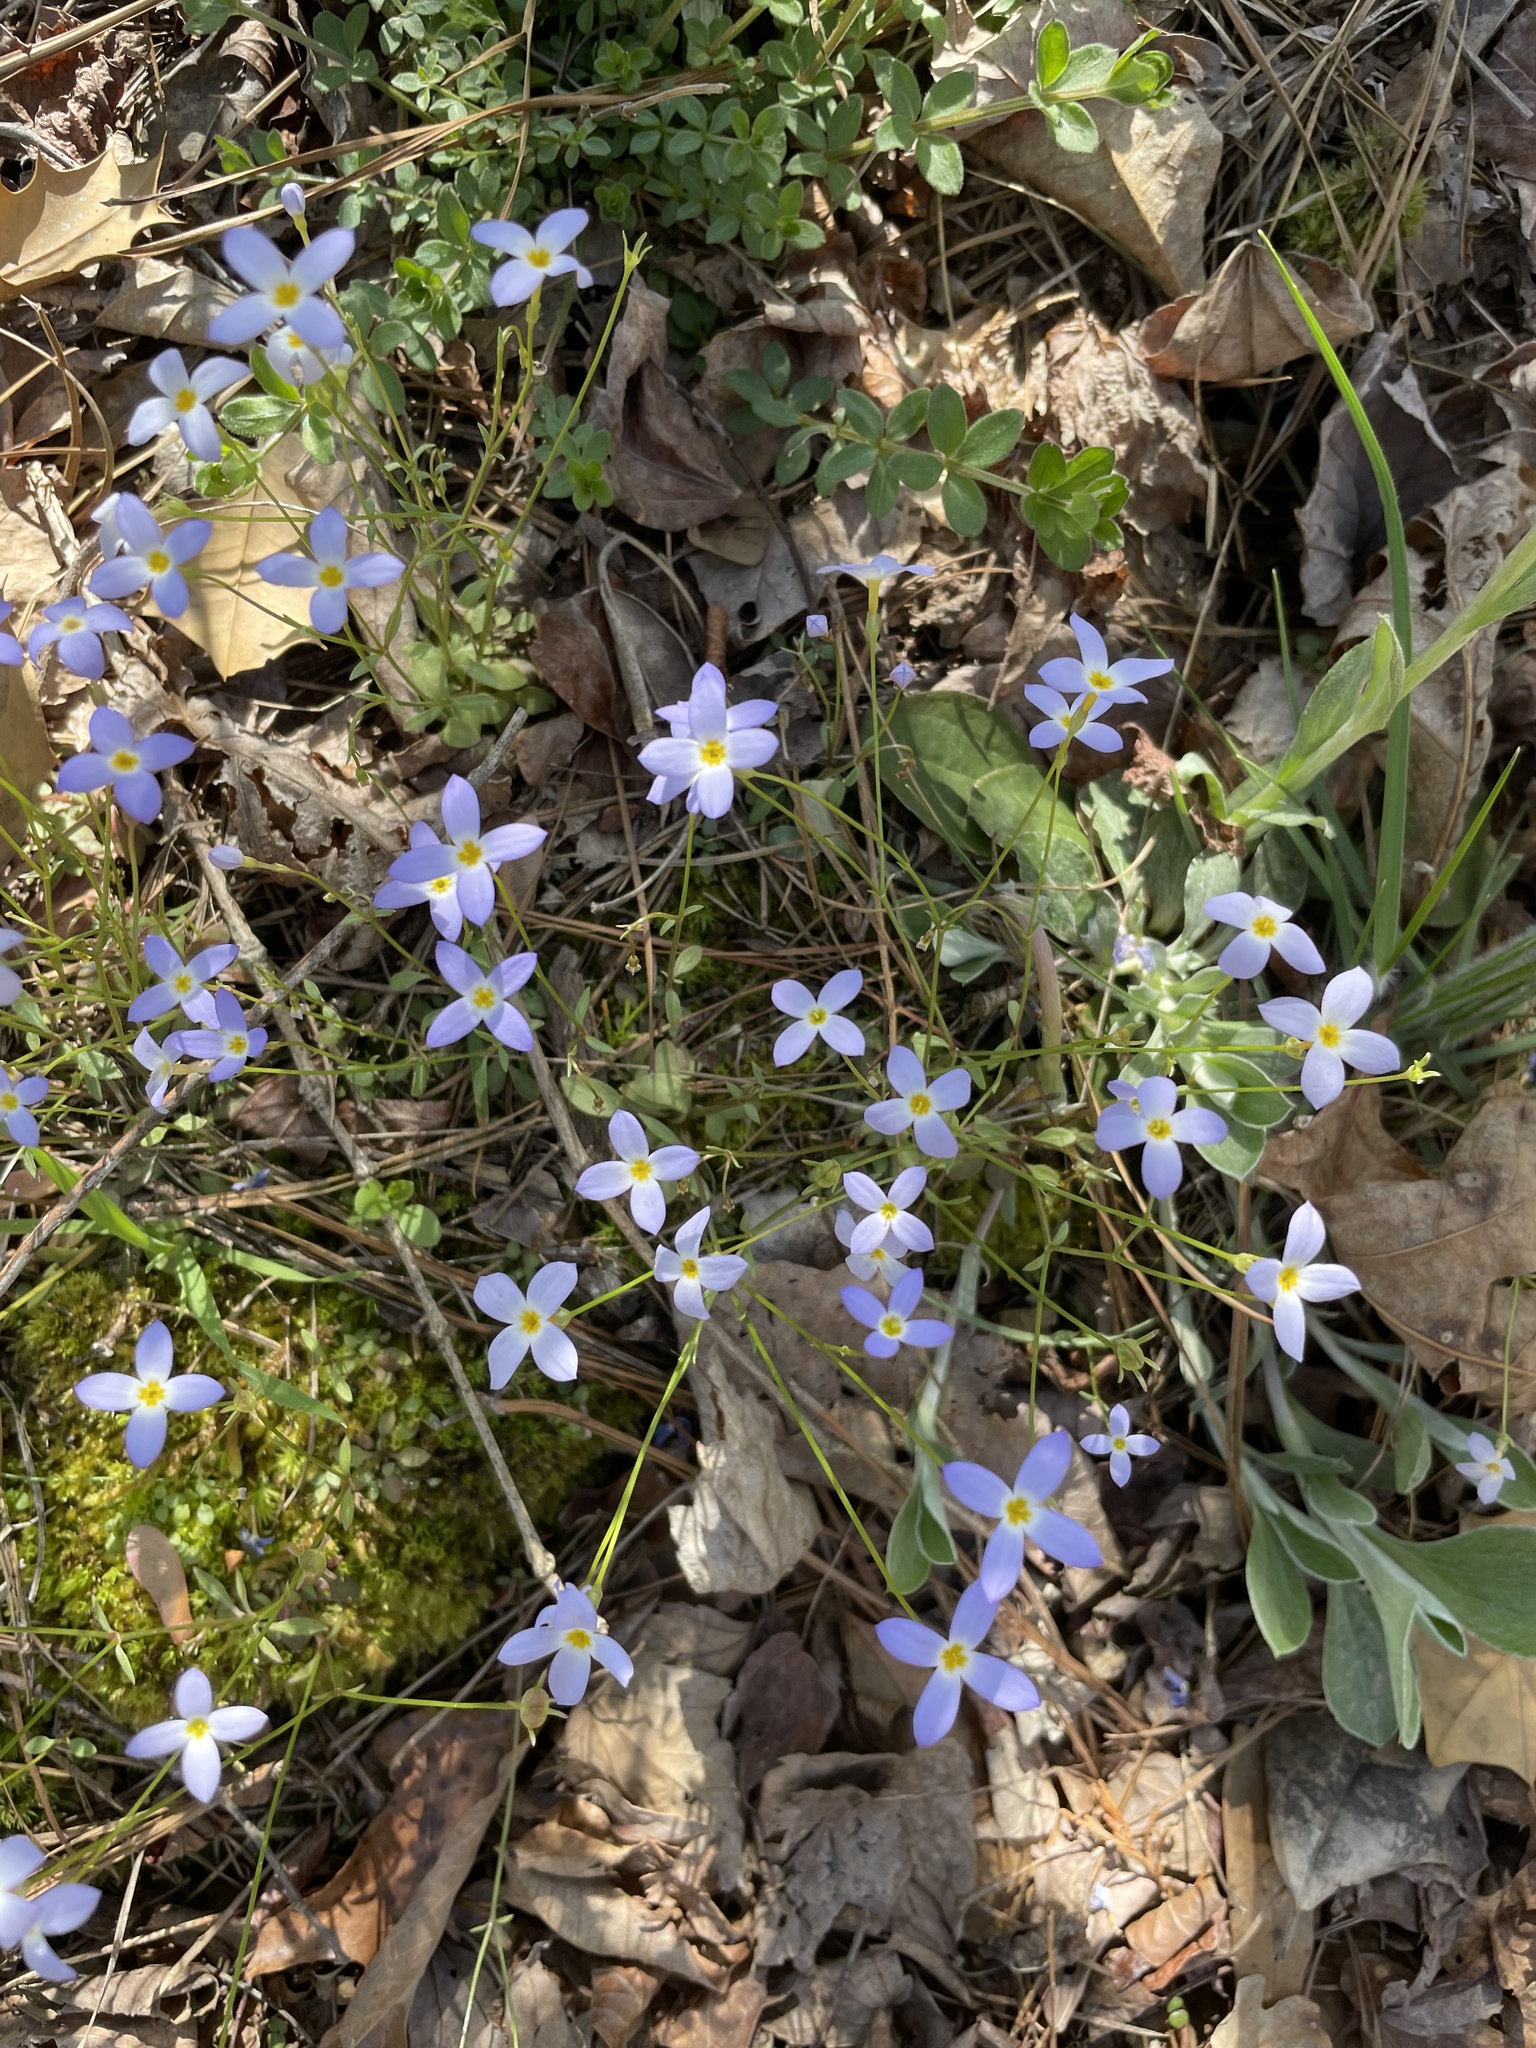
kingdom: Plantae
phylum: Tracheophyta
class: Magnoliopsida
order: Gentianales
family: Rubiaceae
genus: Houstonia
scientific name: Houstonia caerulea
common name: Bluets
